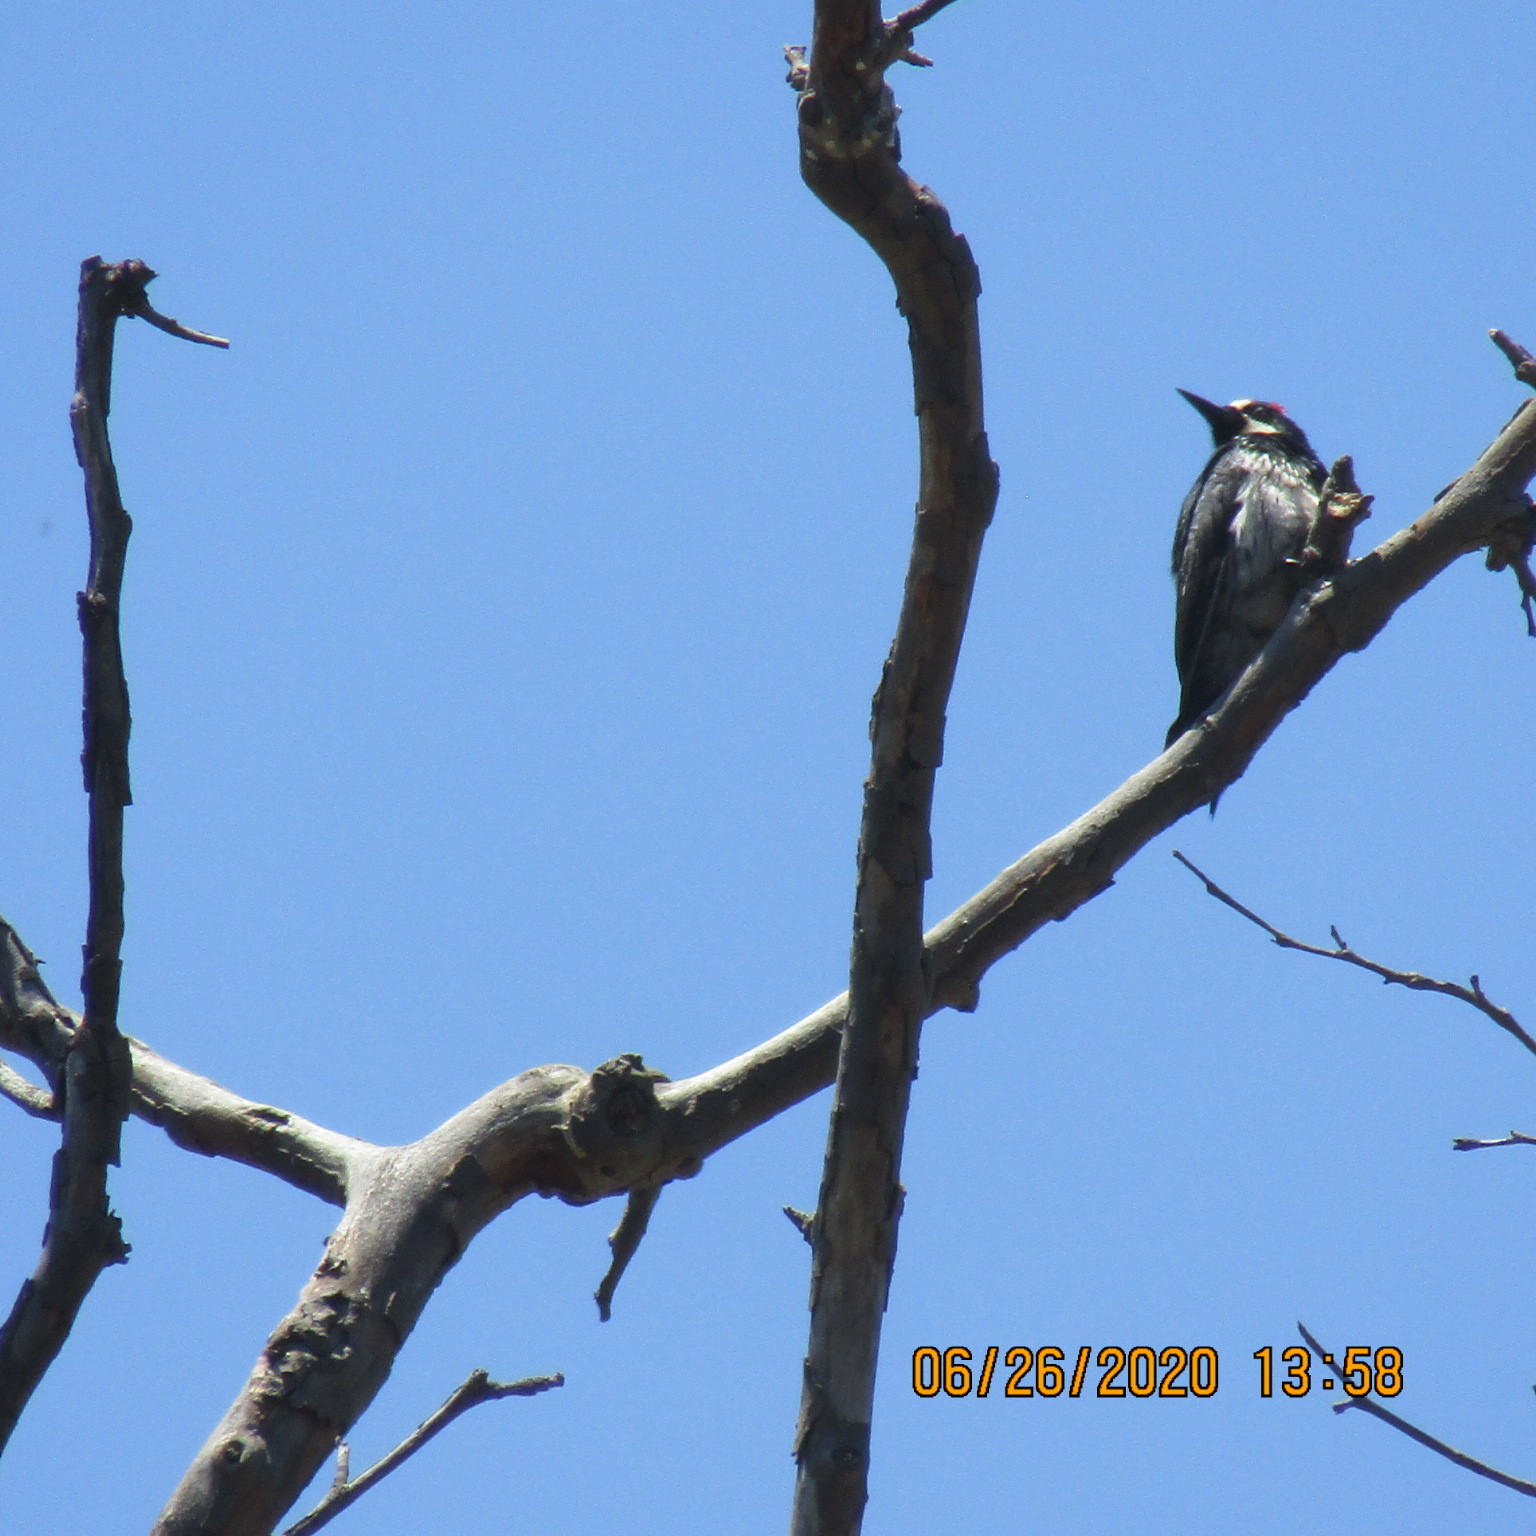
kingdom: Animalia
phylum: Chordata
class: Aves
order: Piciformes
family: Picidae
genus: Melanerpes
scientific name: Melanerpes formicivorus
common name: Acorn woodpecker
